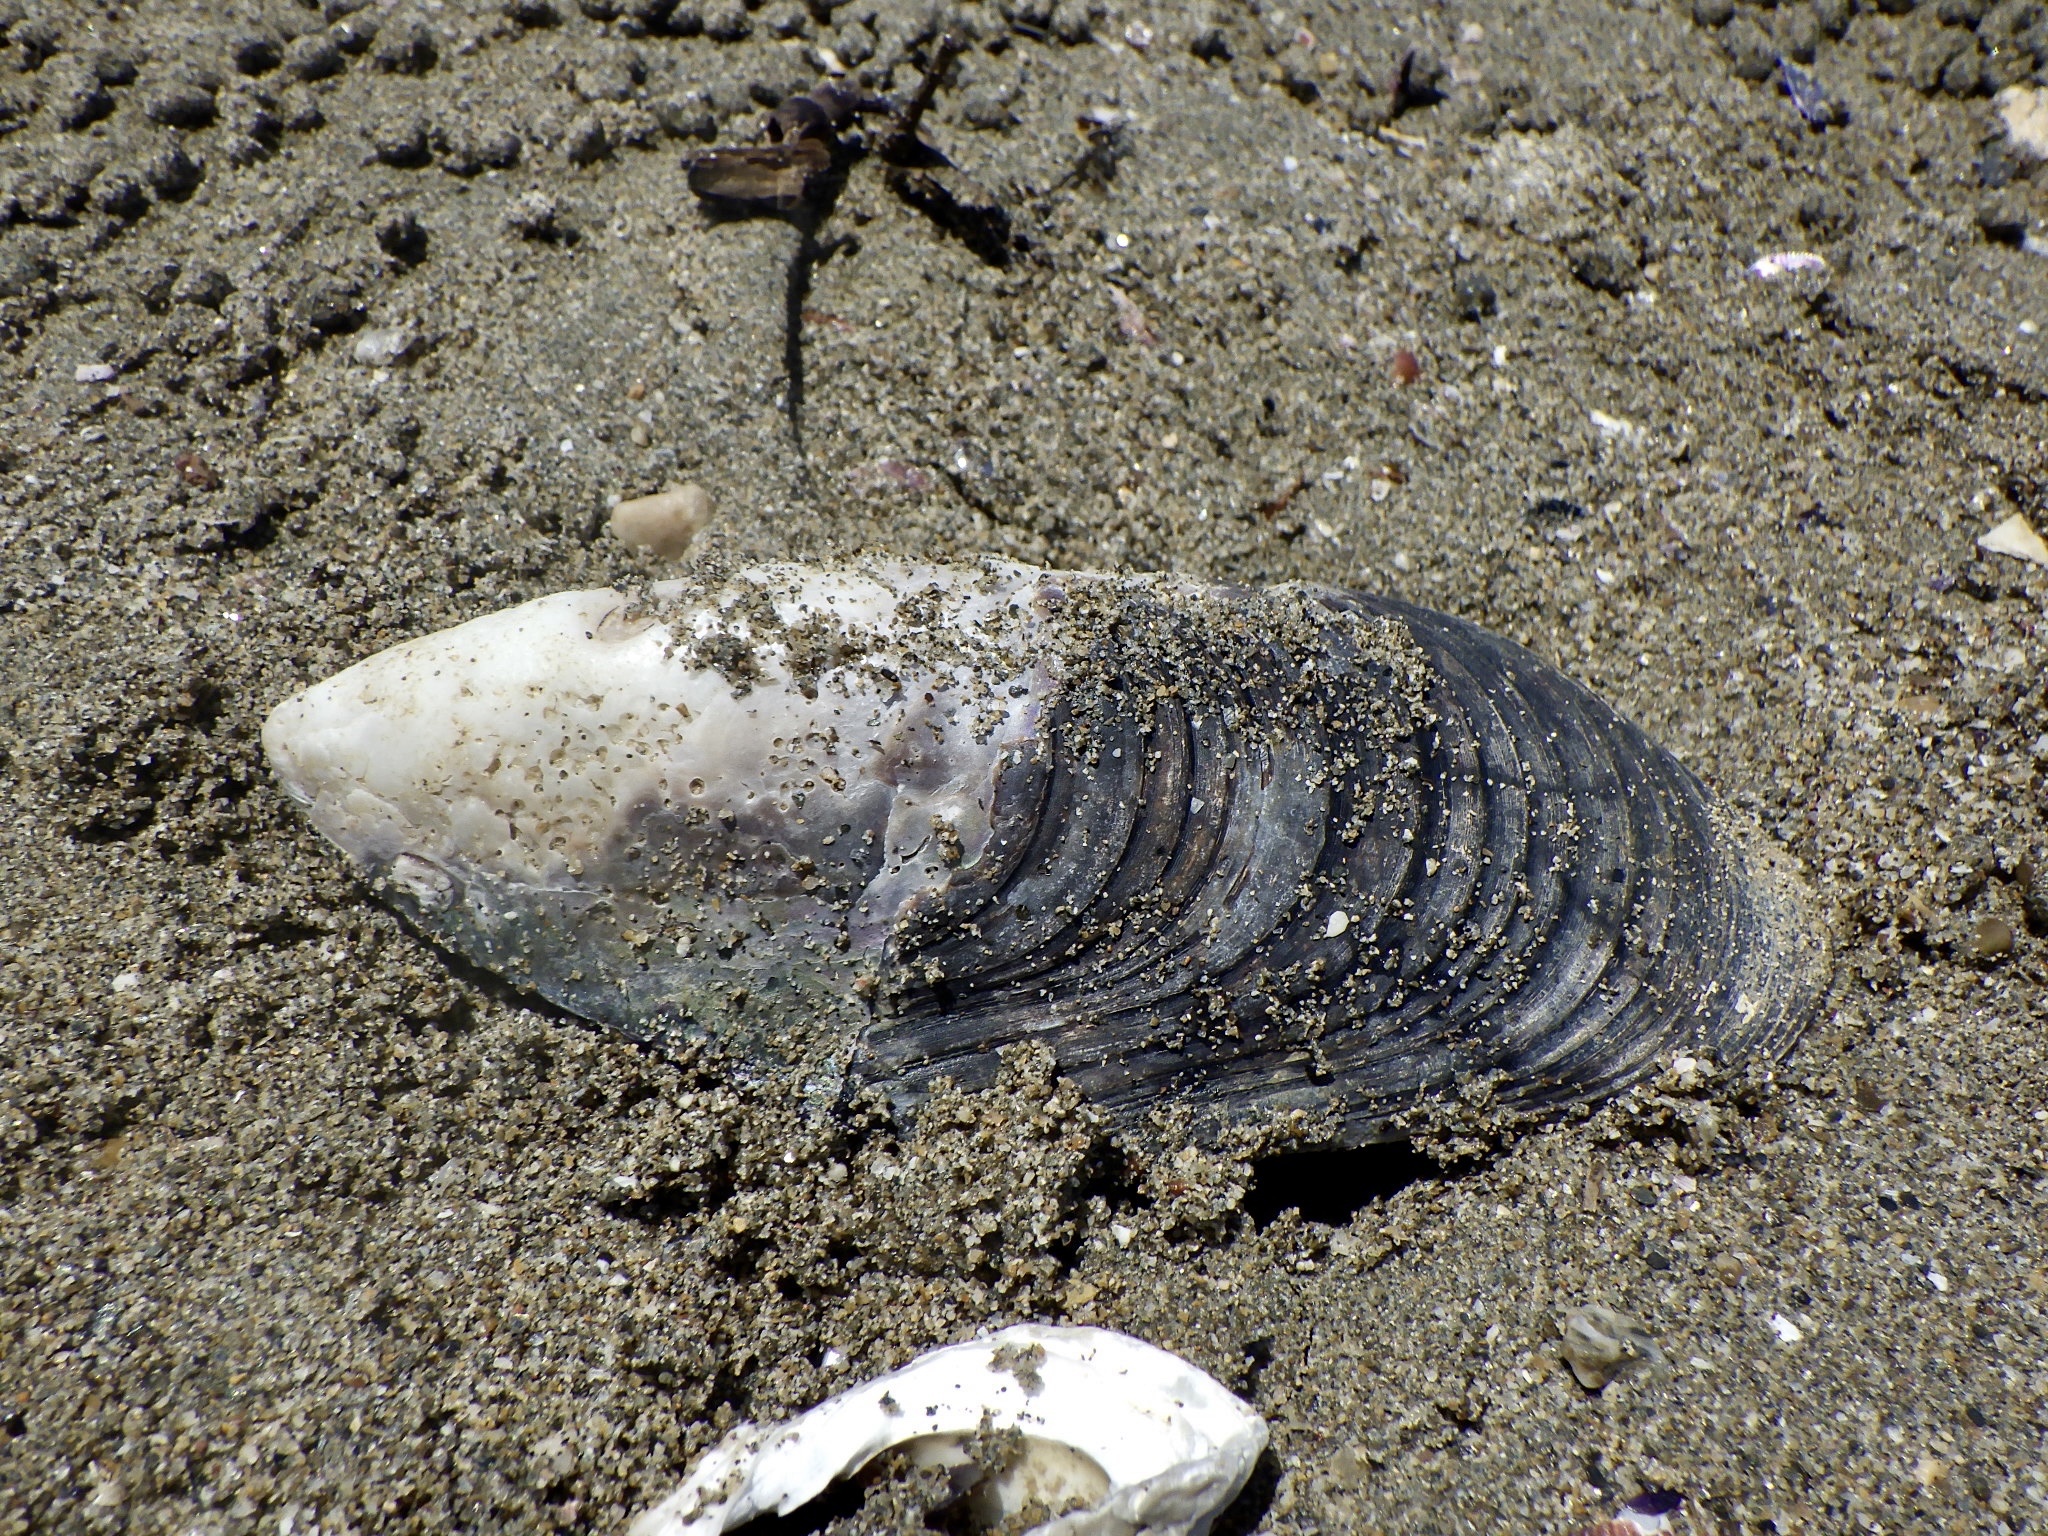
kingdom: Animalia
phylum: Mollusca
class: Bivalvia
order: Mytilida
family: Mytilidae
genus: Mytilus
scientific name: Mytilus galloprovincialis
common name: Mediterranean mussel
